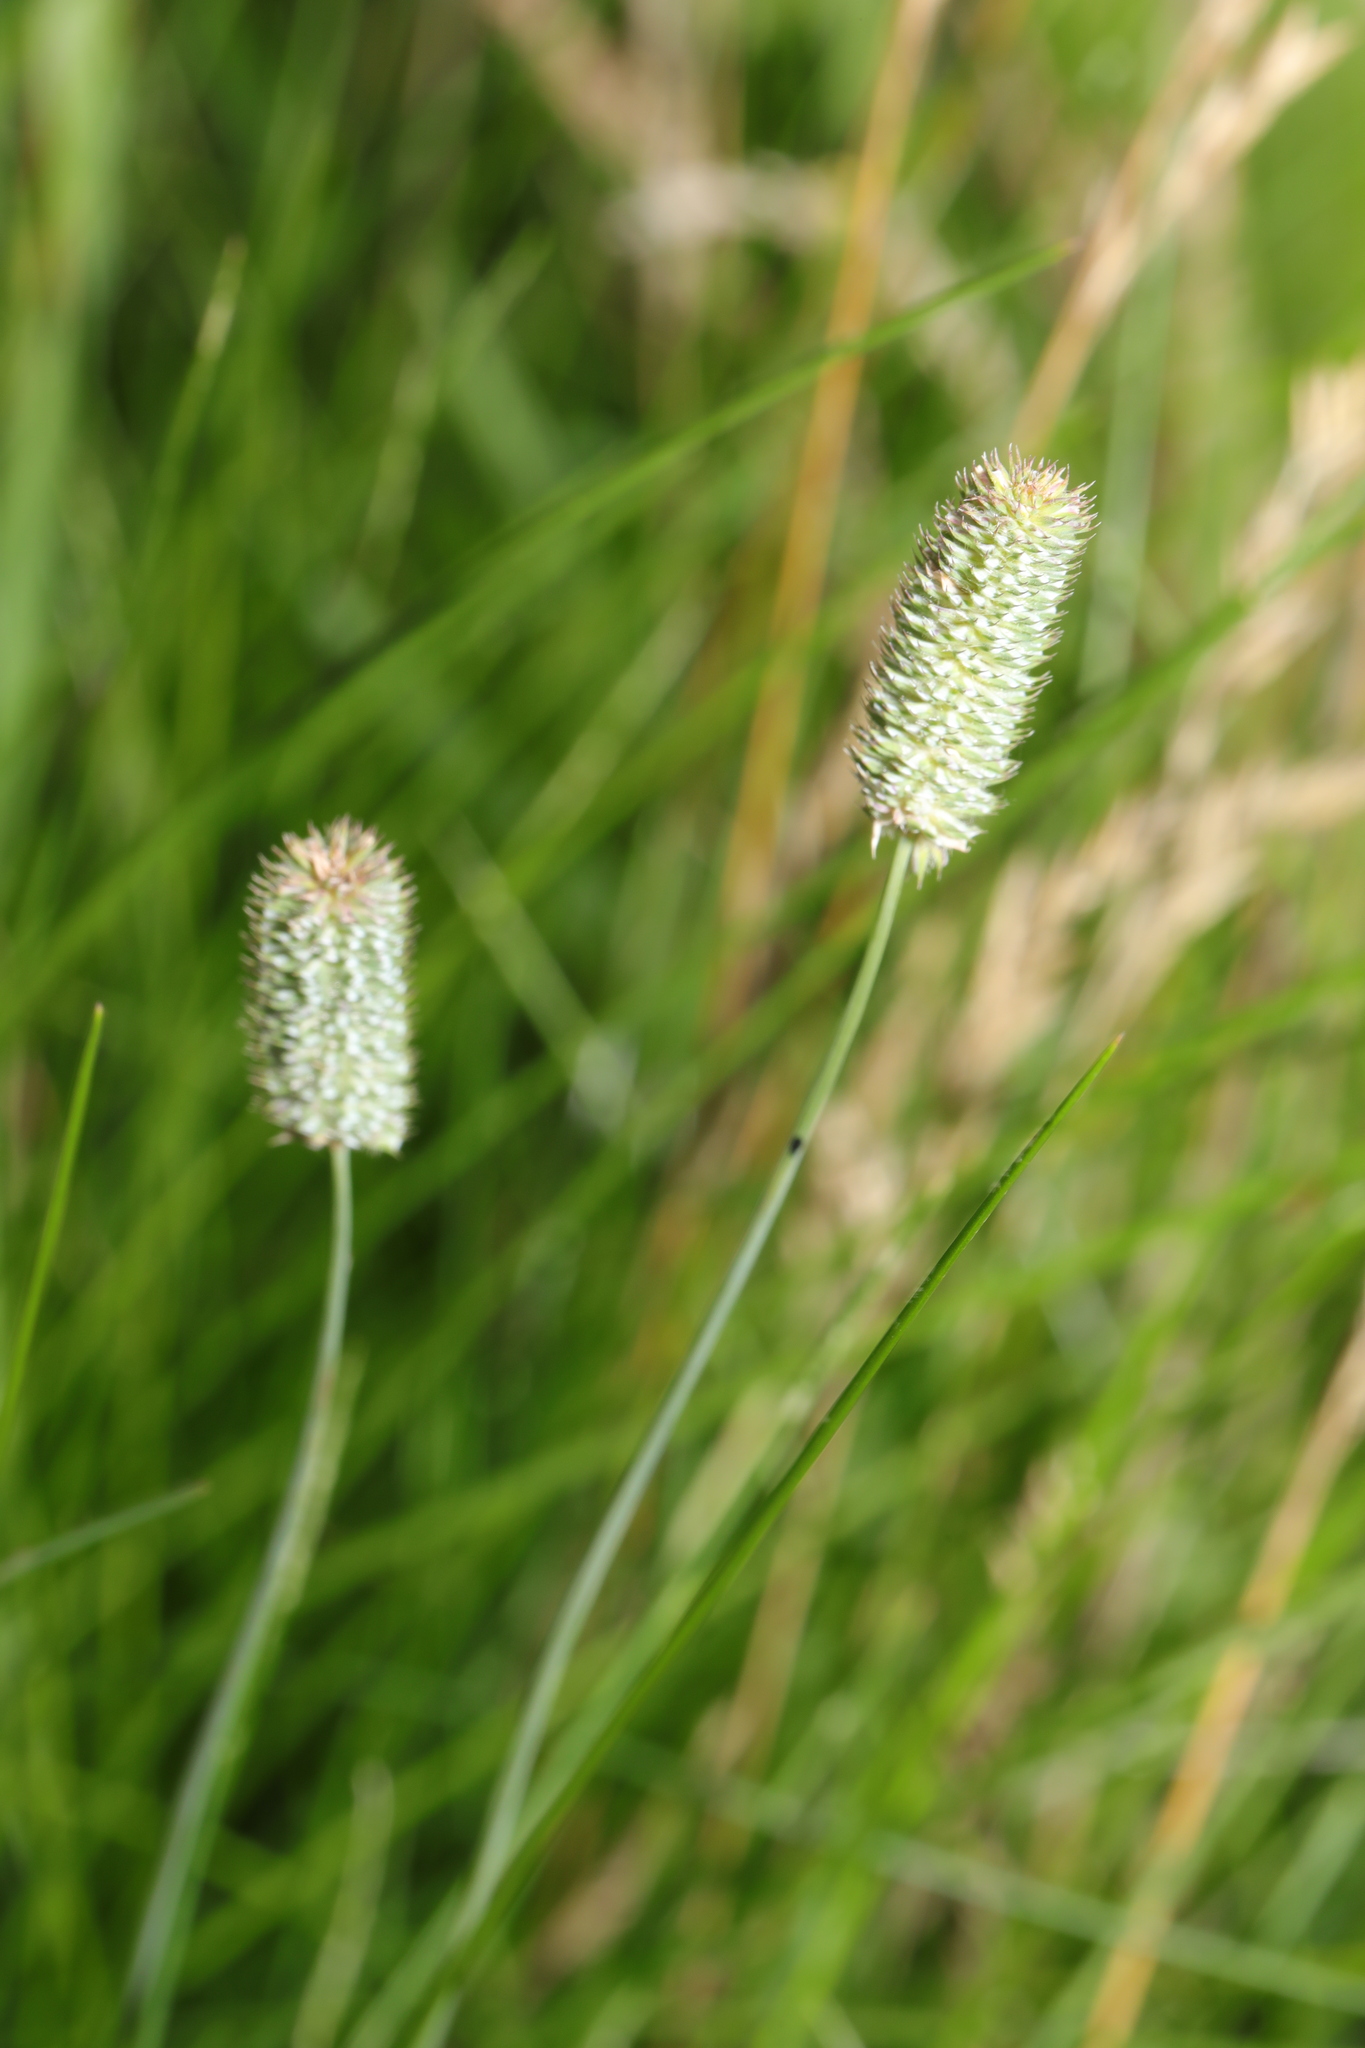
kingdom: Plantae
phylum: Tracheophyta
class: Liliopsida
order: Poales
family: Poaceae
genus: Phleum
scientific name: Phleum bertolonii
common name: Smaller cat's-tail
